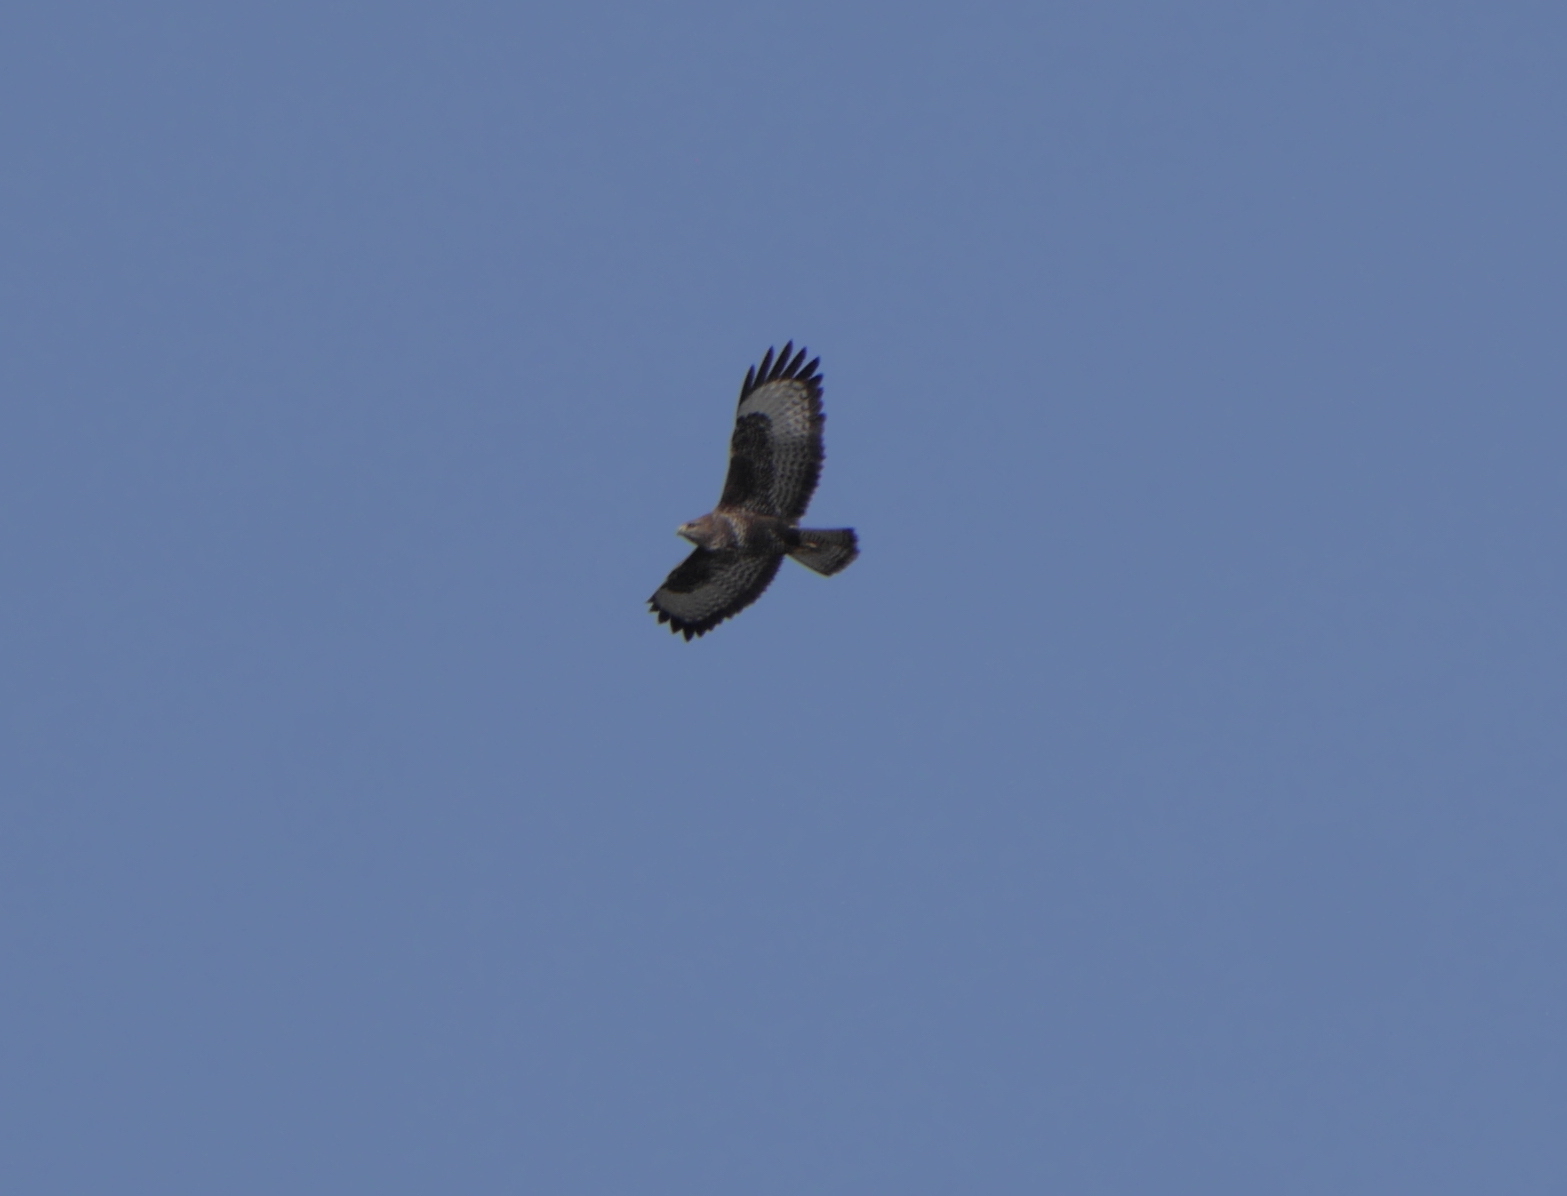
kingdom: Animalia
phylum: Chordata
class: Aves
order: Accipitriformes
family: Accipitridae
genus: Buteo
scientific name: Buteo buteo
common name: Common buzzard
